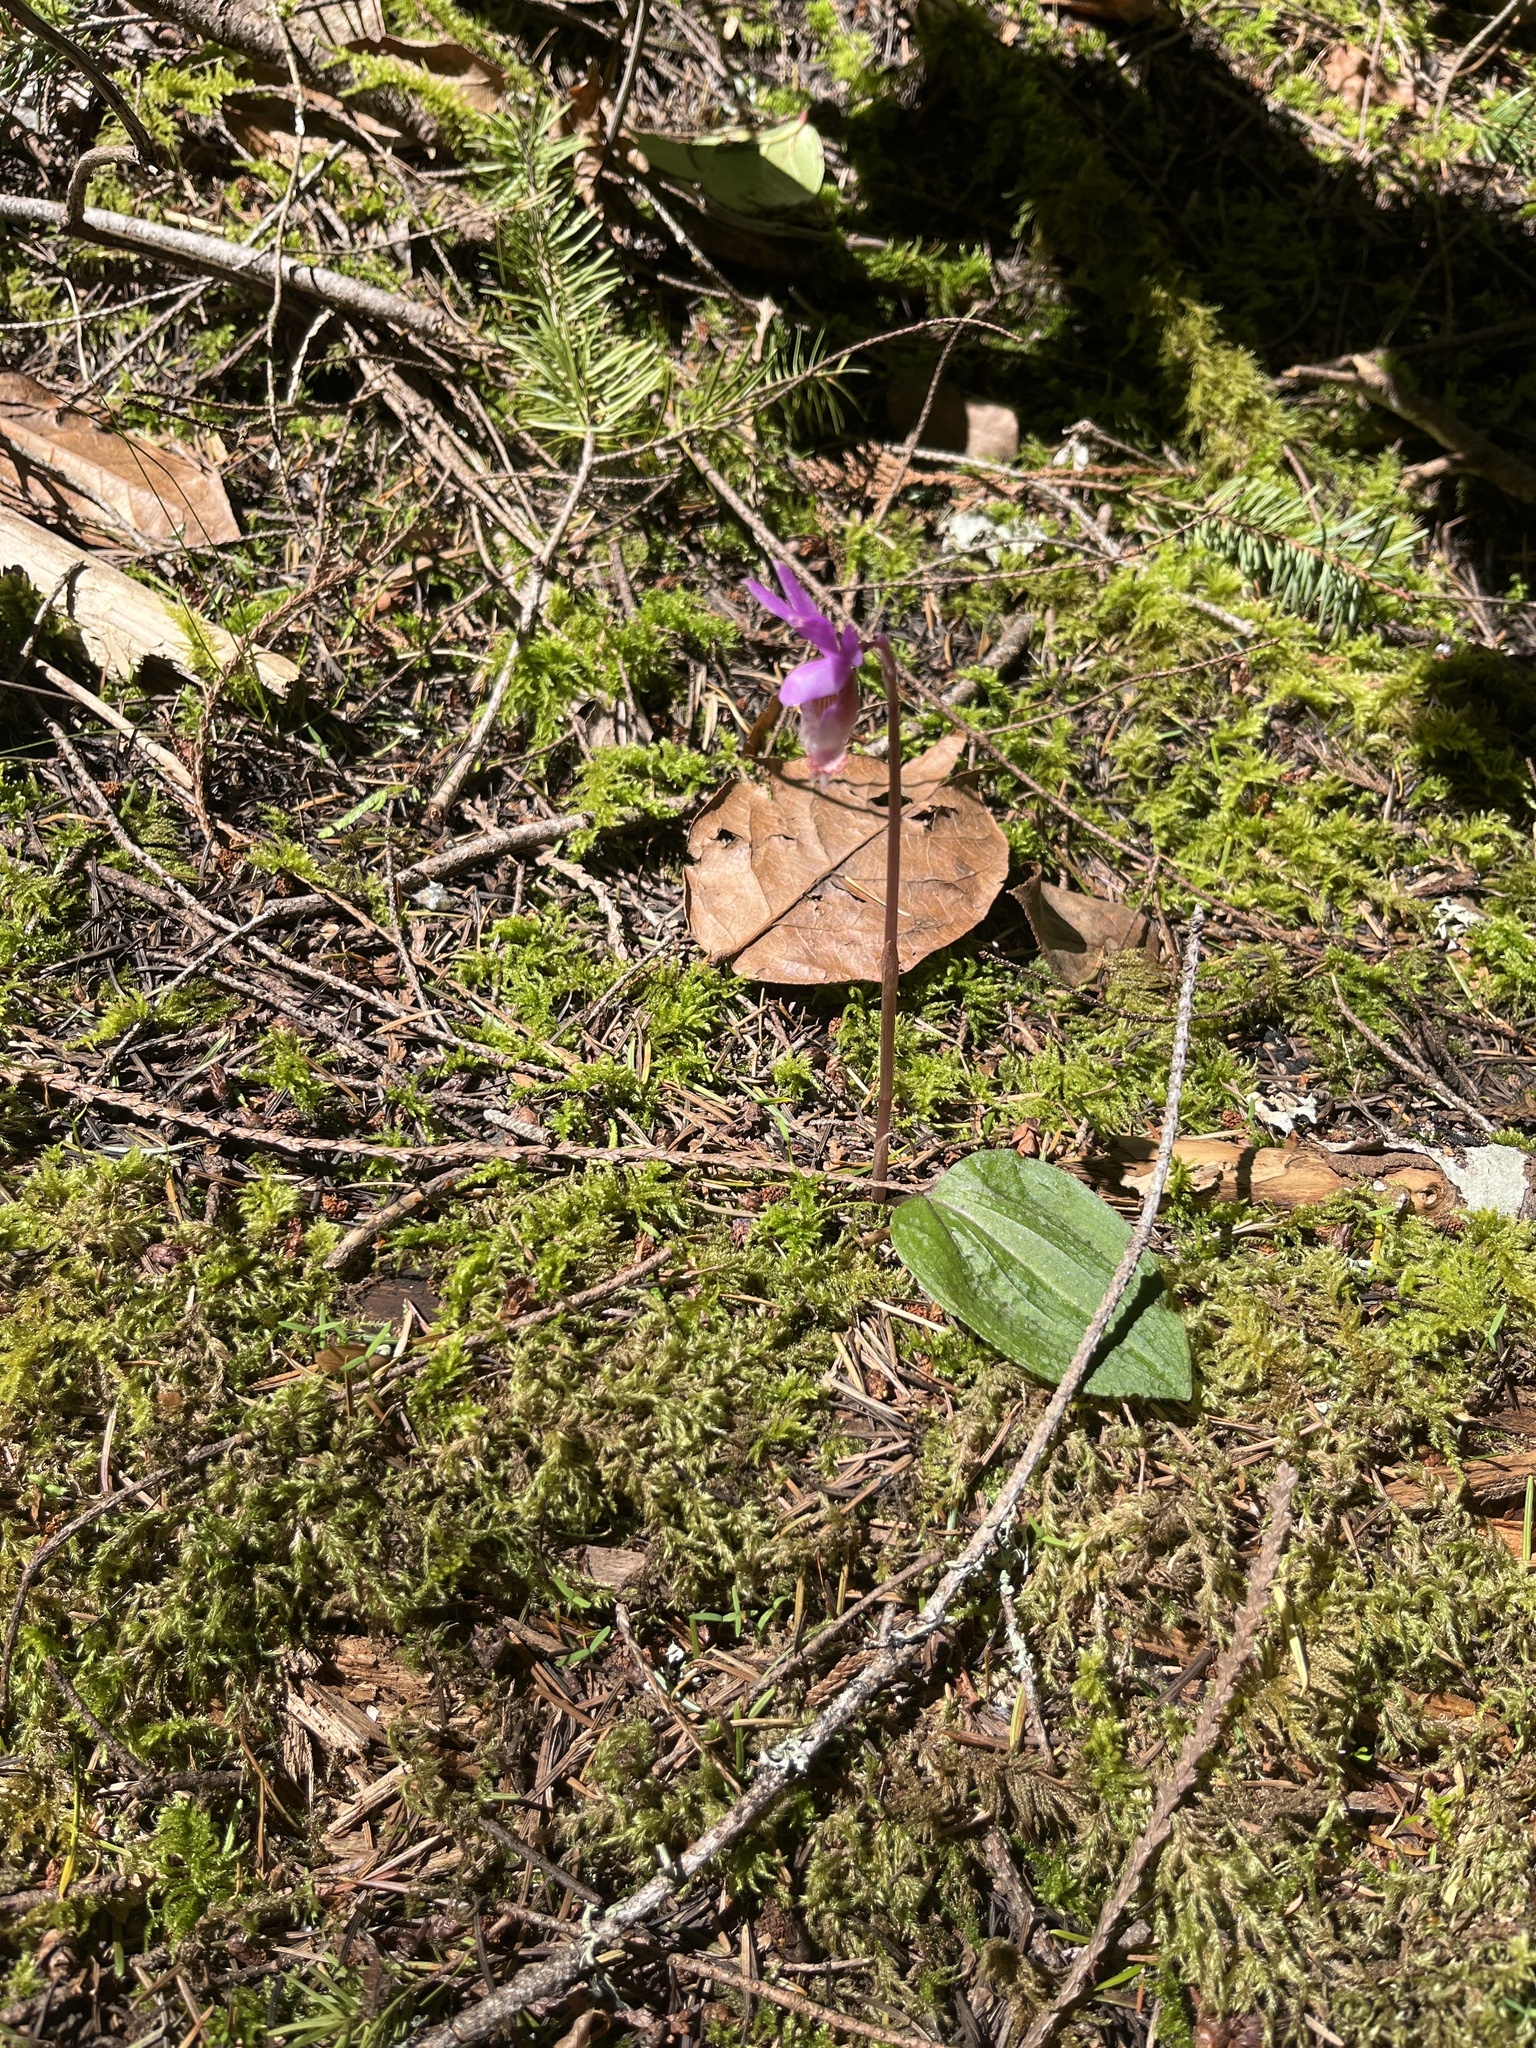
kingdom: Plantae
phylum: Tracheophyta
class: Liliopsida
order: Asparagales
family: Orchidaceae
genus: Calypso
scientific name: Calypso bulbosa
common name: Calypso
